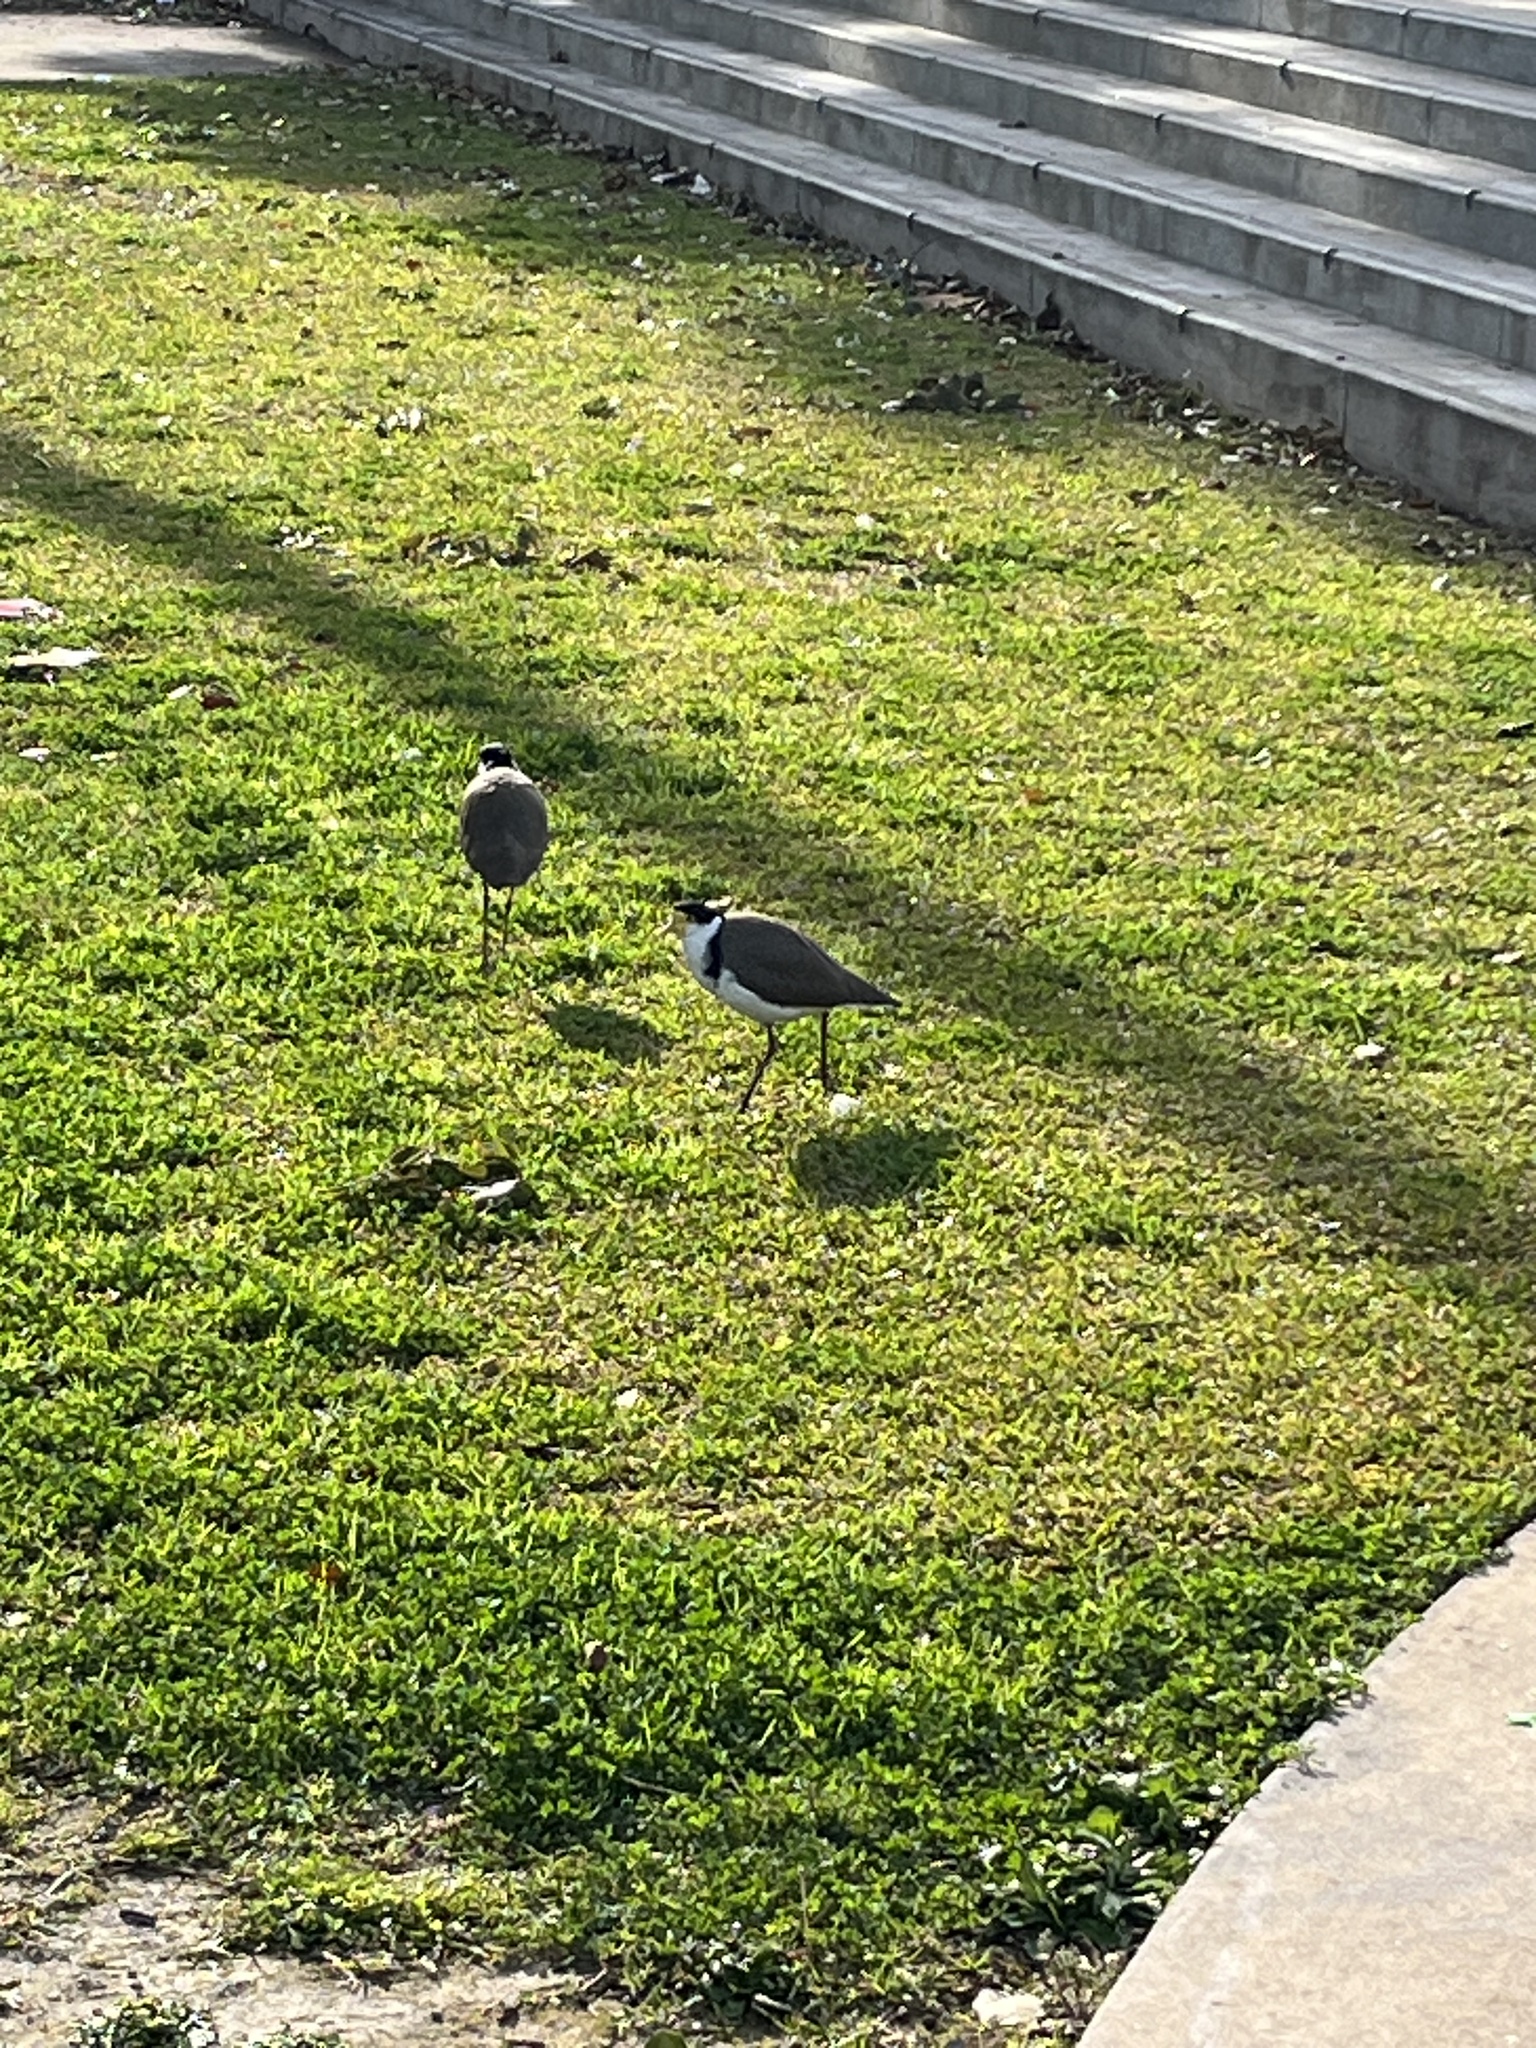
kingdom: Animalia
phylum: Chordata
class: Aves
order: Charadriiformes
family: Charadriidae
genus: Vanellus
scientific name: Vanellus miles
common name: Masked lapwing
